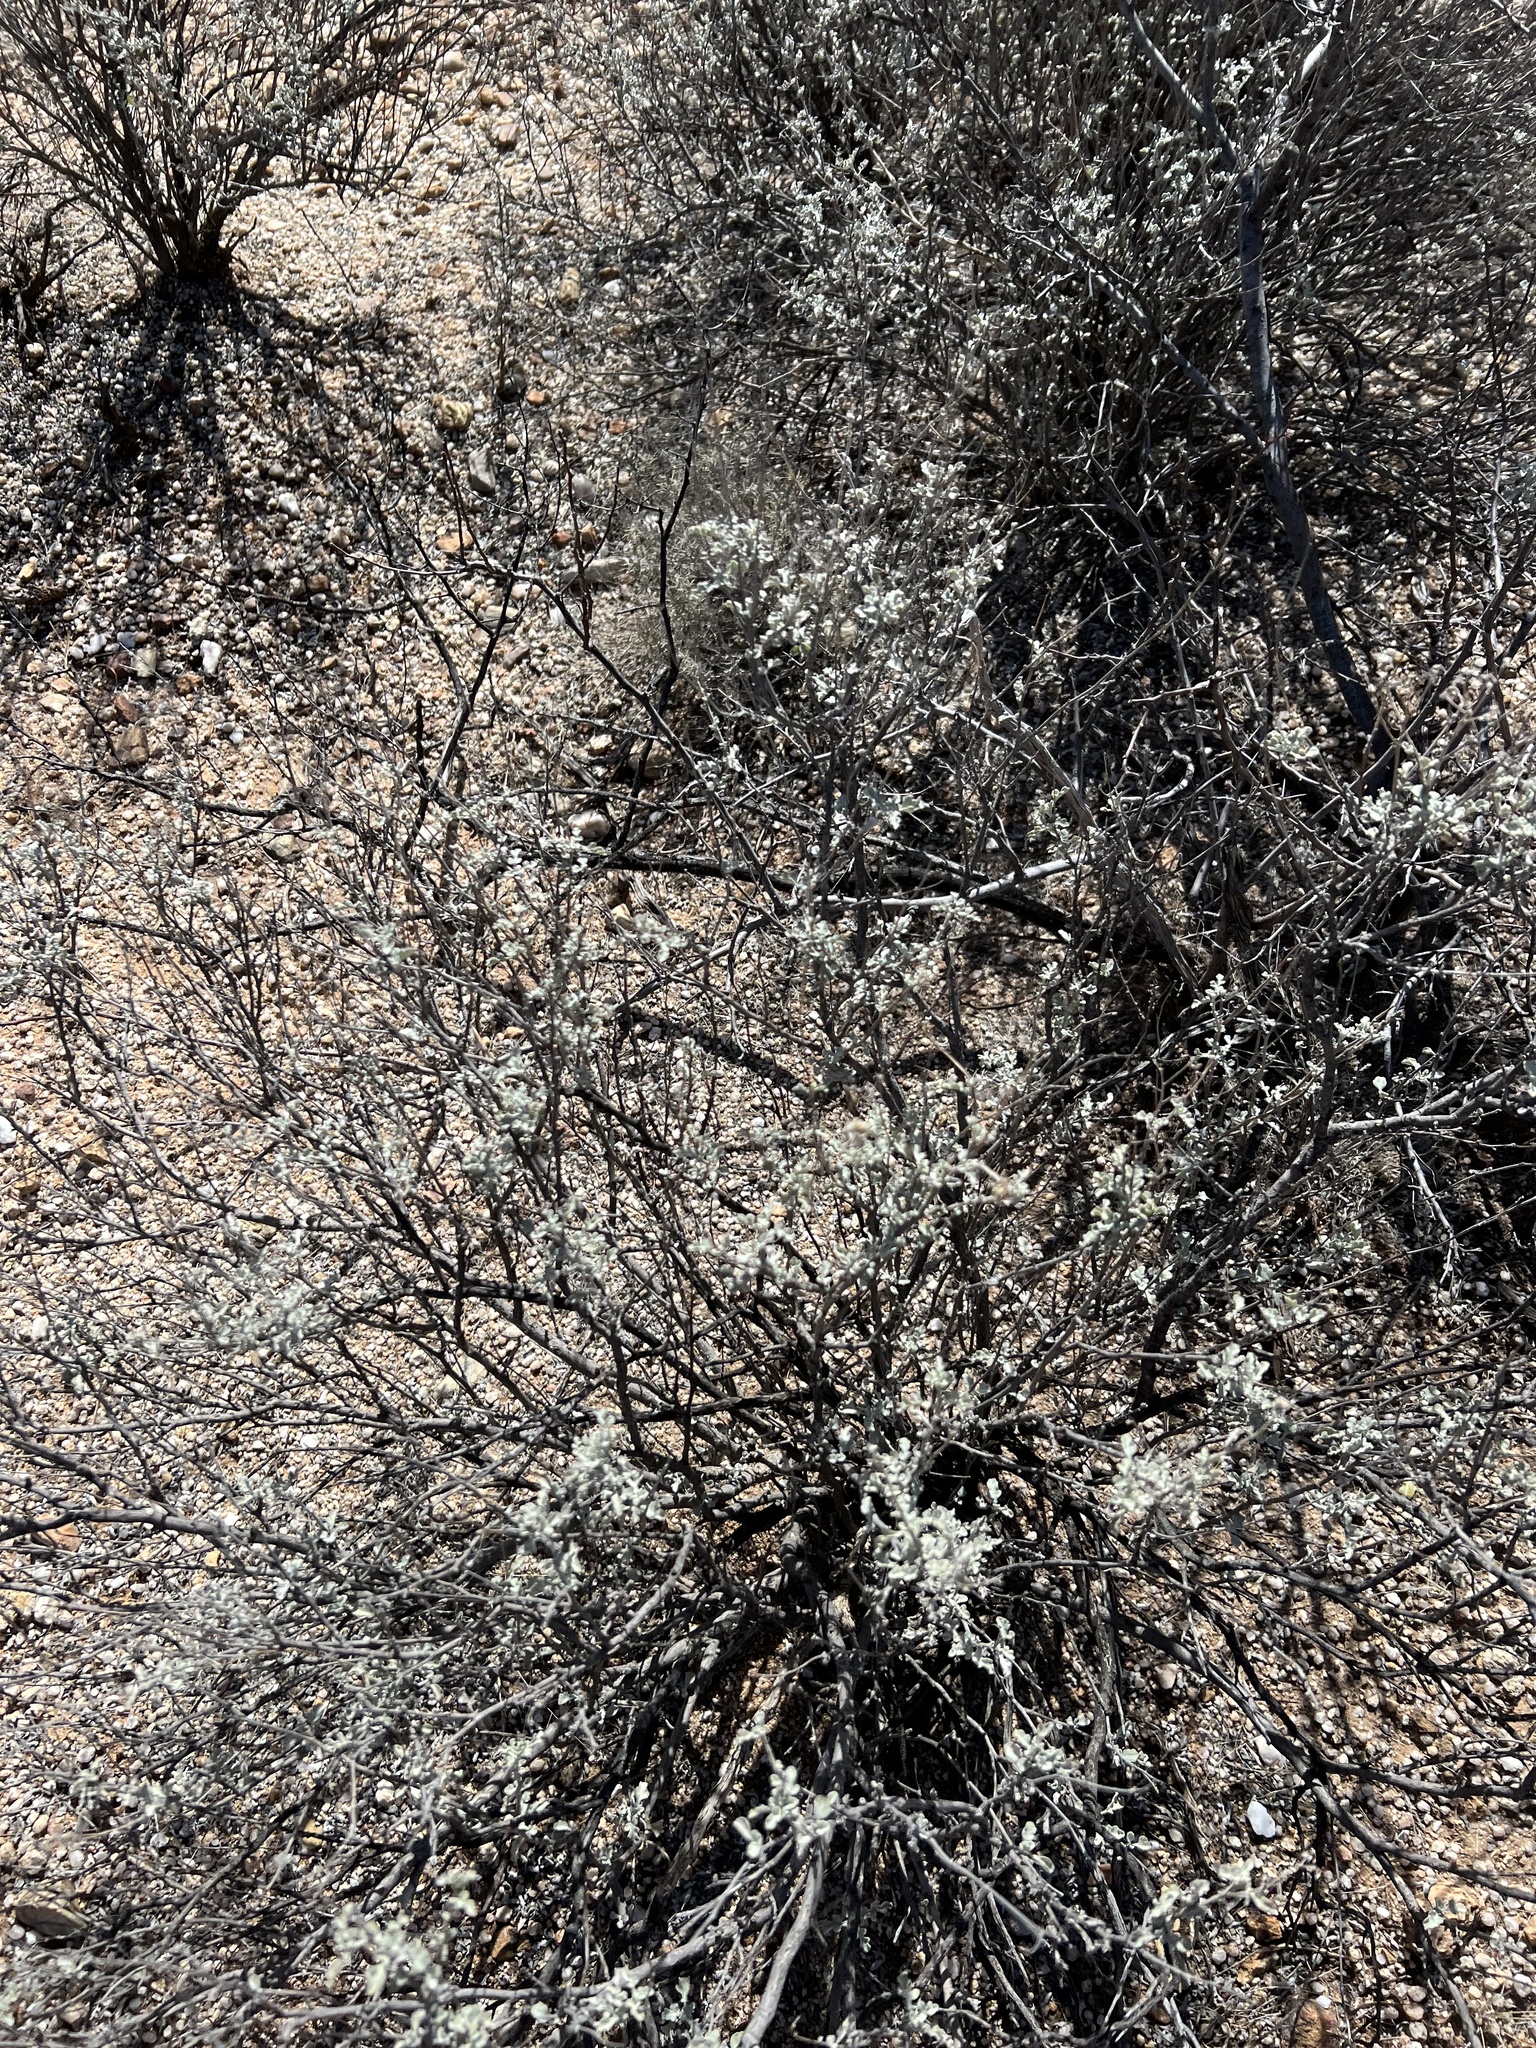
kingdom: Plantae
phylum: Tracheophyta
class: Magnoliopsida
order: Asterales
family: Asteraceae
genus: Parthenium
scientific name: Parthenium incanum
